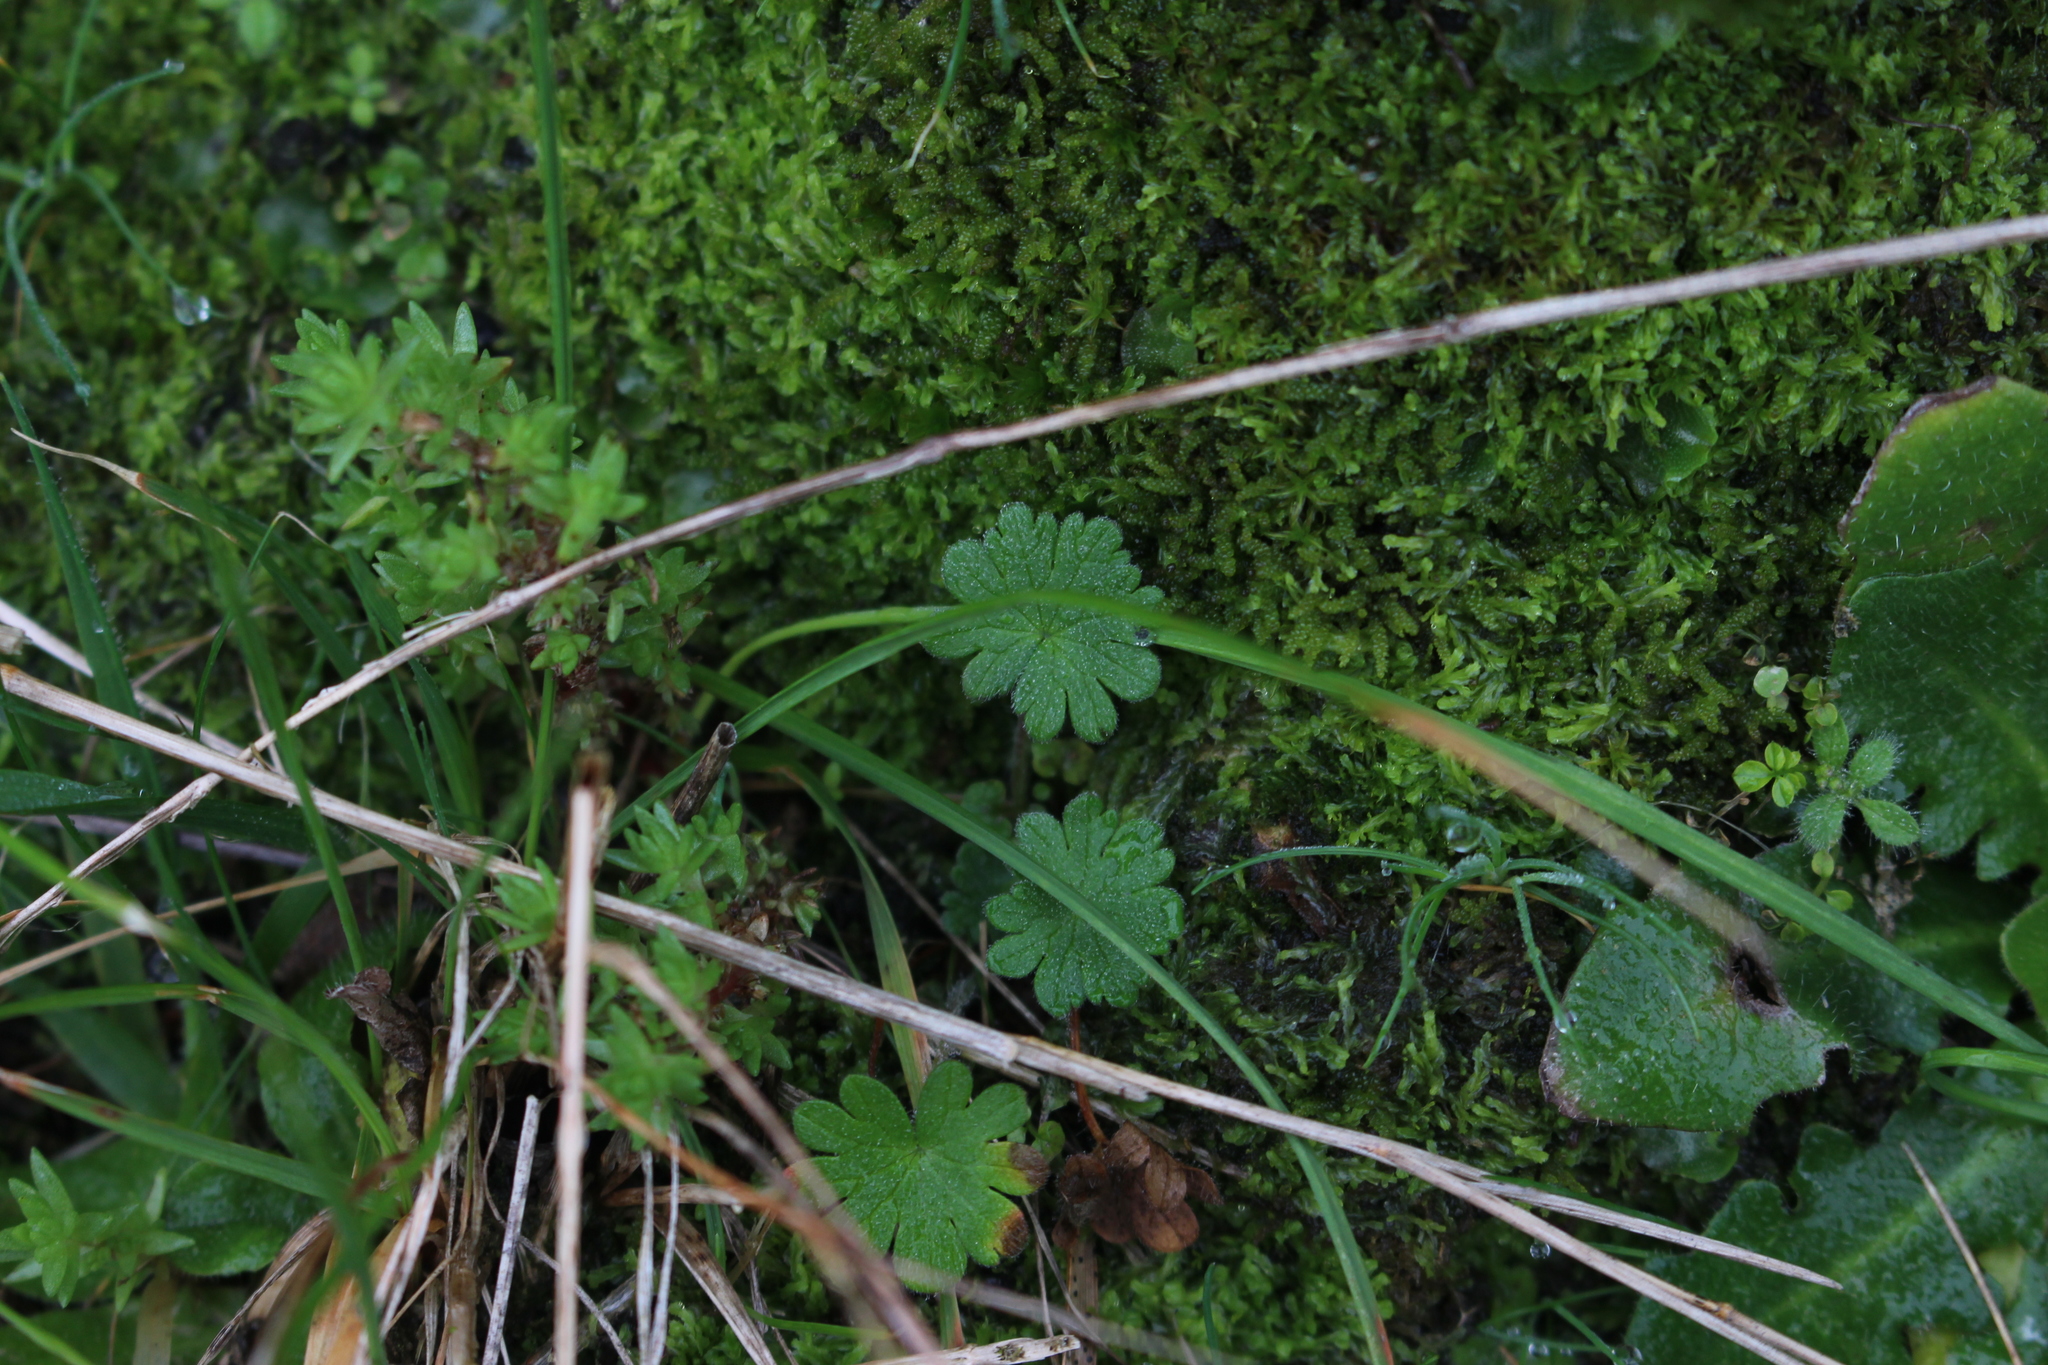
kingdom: Plantae
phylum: Tracheophyta
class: Magnoliopsida
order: Geraniales
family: Geraniaceae
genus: Geranium
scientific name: Geranium molle
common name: Dove's-foot crane's-bill
